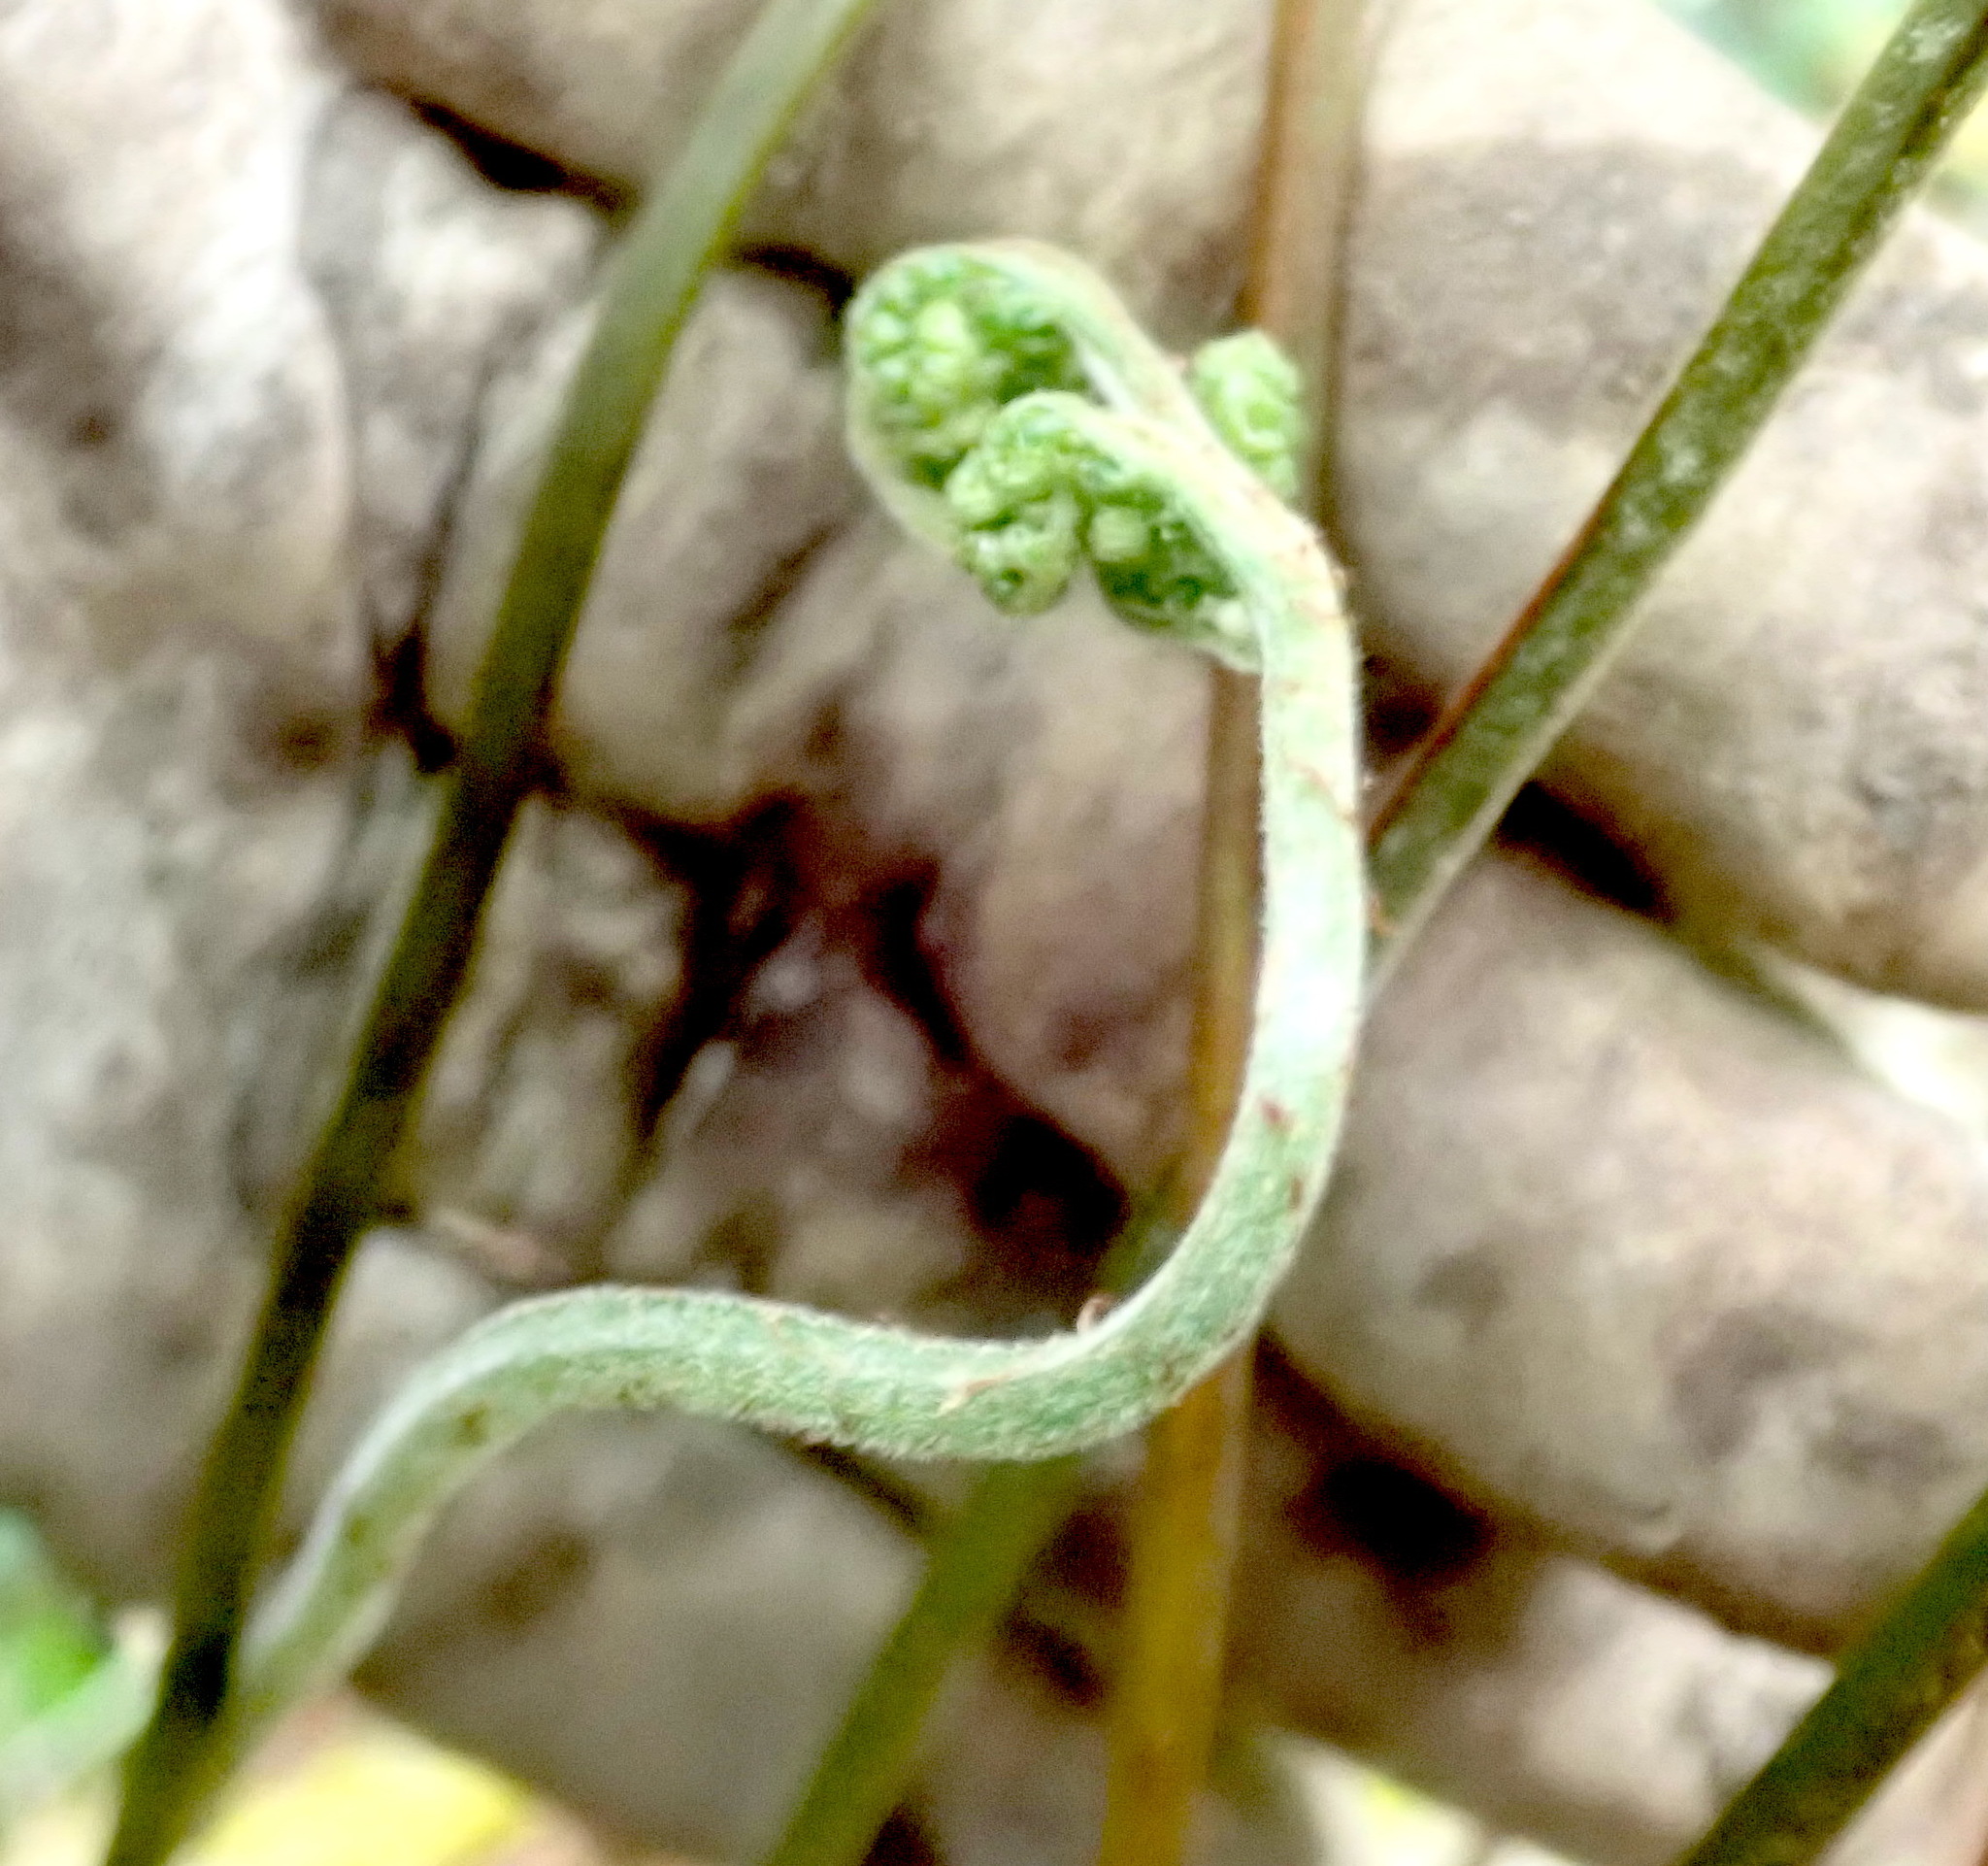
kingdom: Plantae
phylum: Tracheophyta
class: Polypodiopsida
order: Polypodiales
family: Dryopteridaceae
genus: Parapolystichum
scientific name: Parapolystichum microsorum
